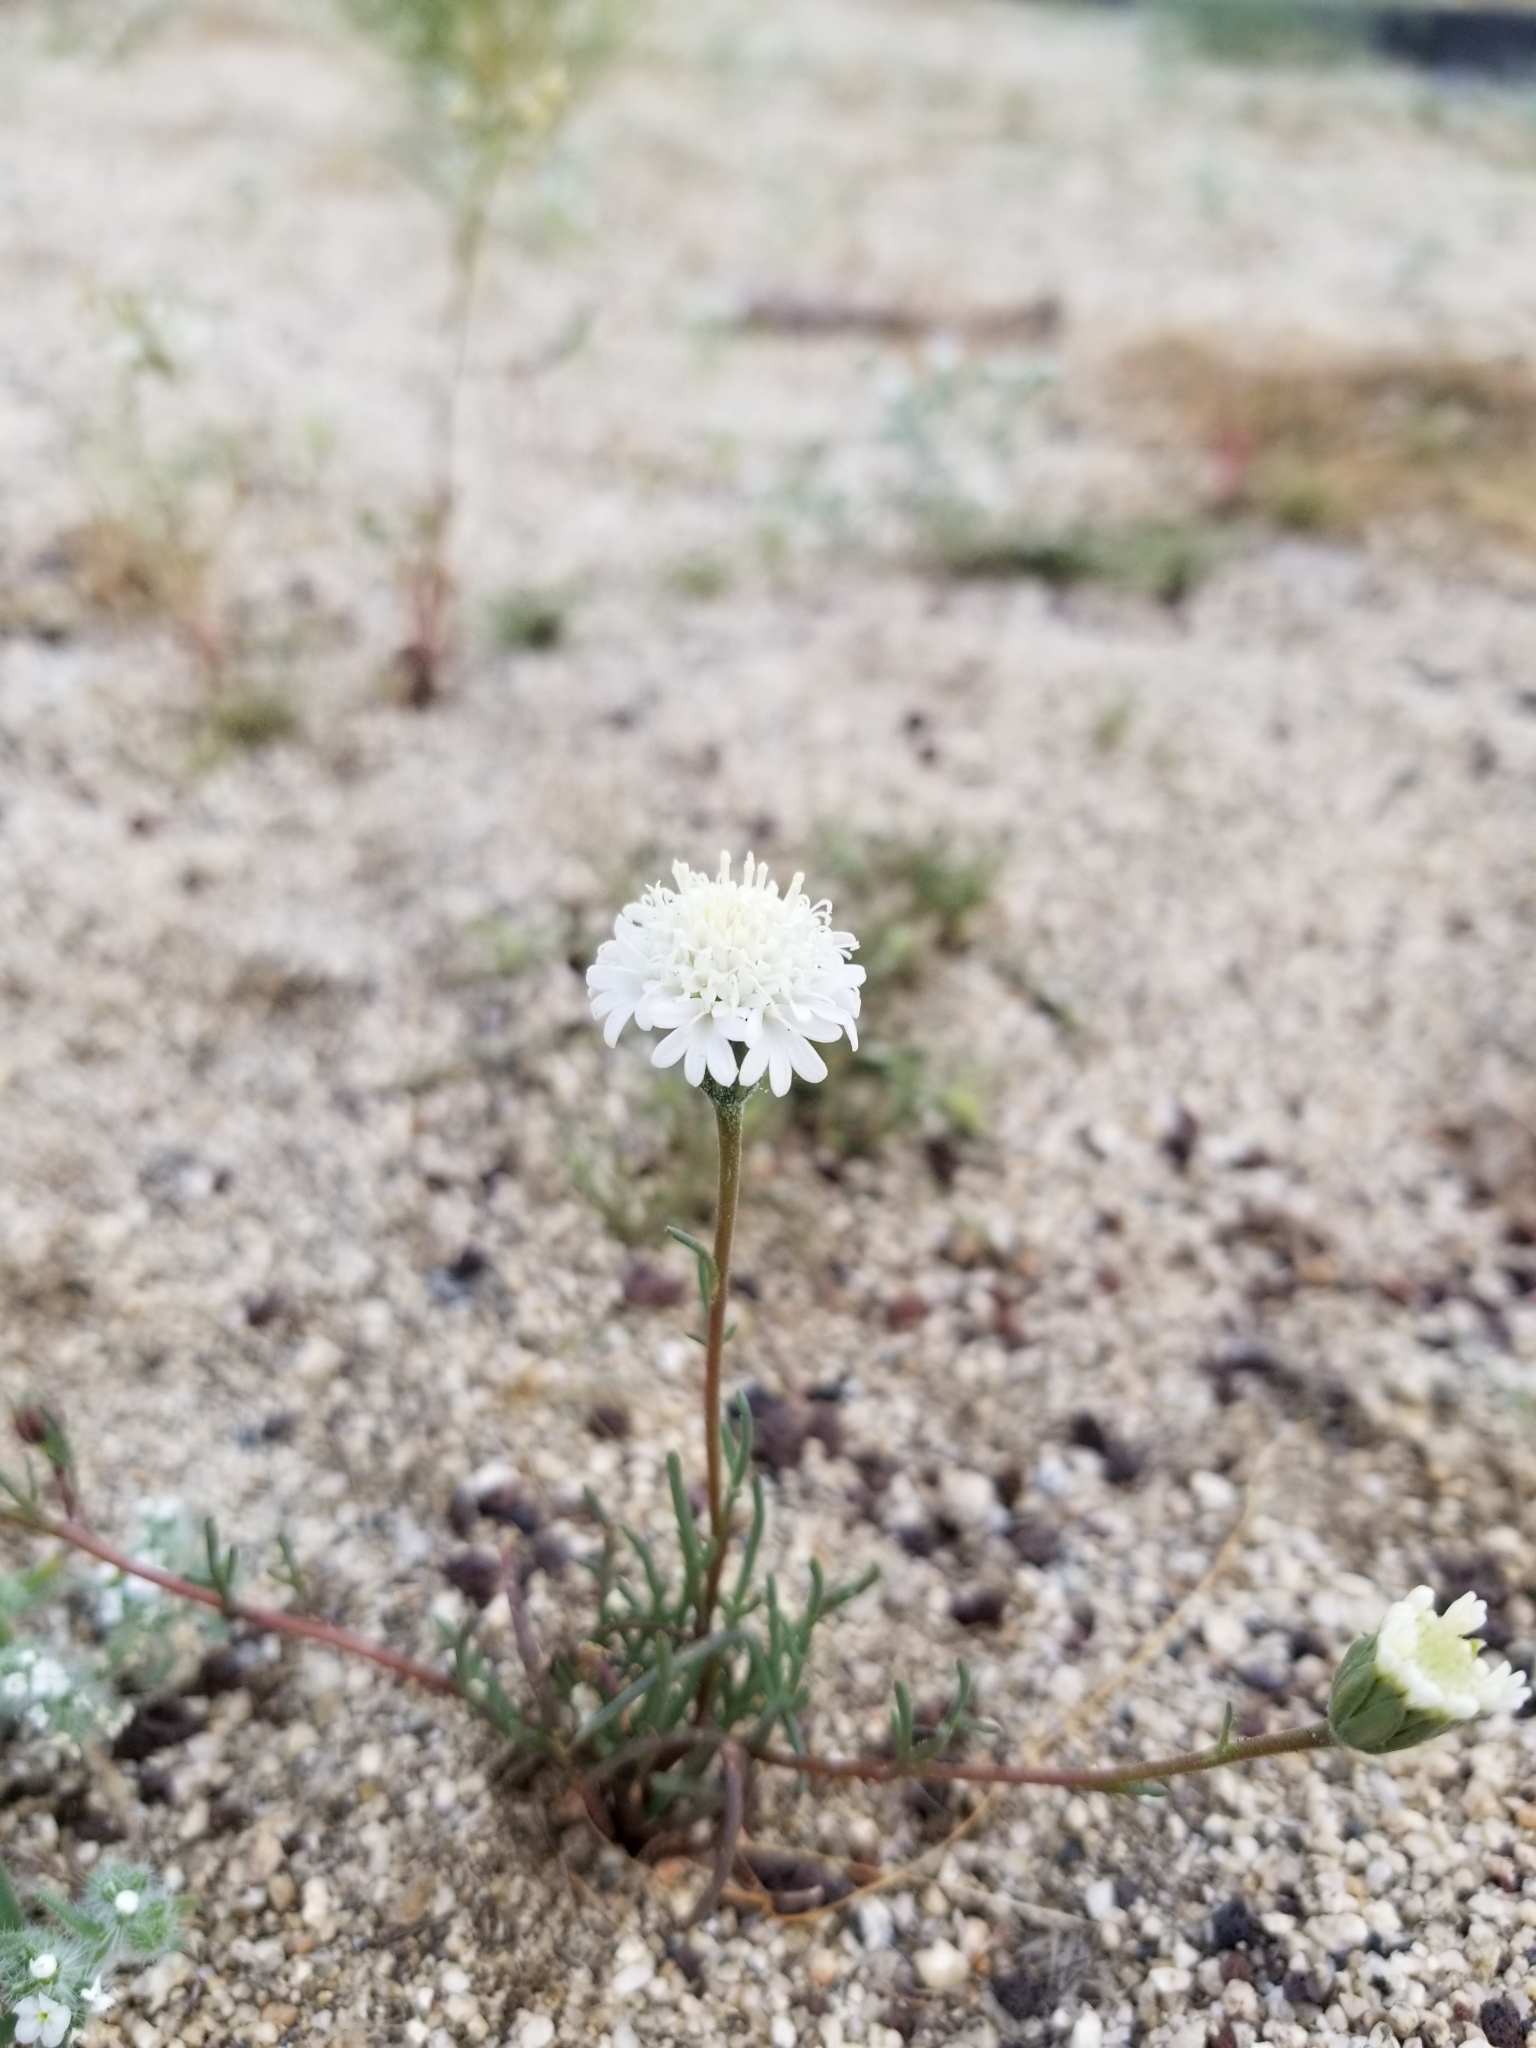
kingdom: Plantae
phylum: Tracheophyta
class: Magnoliopsida
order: Asterales
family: Asteraceae
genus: Chaenactis
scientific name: Chaenactis fremontii
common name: Fremont pincushion
